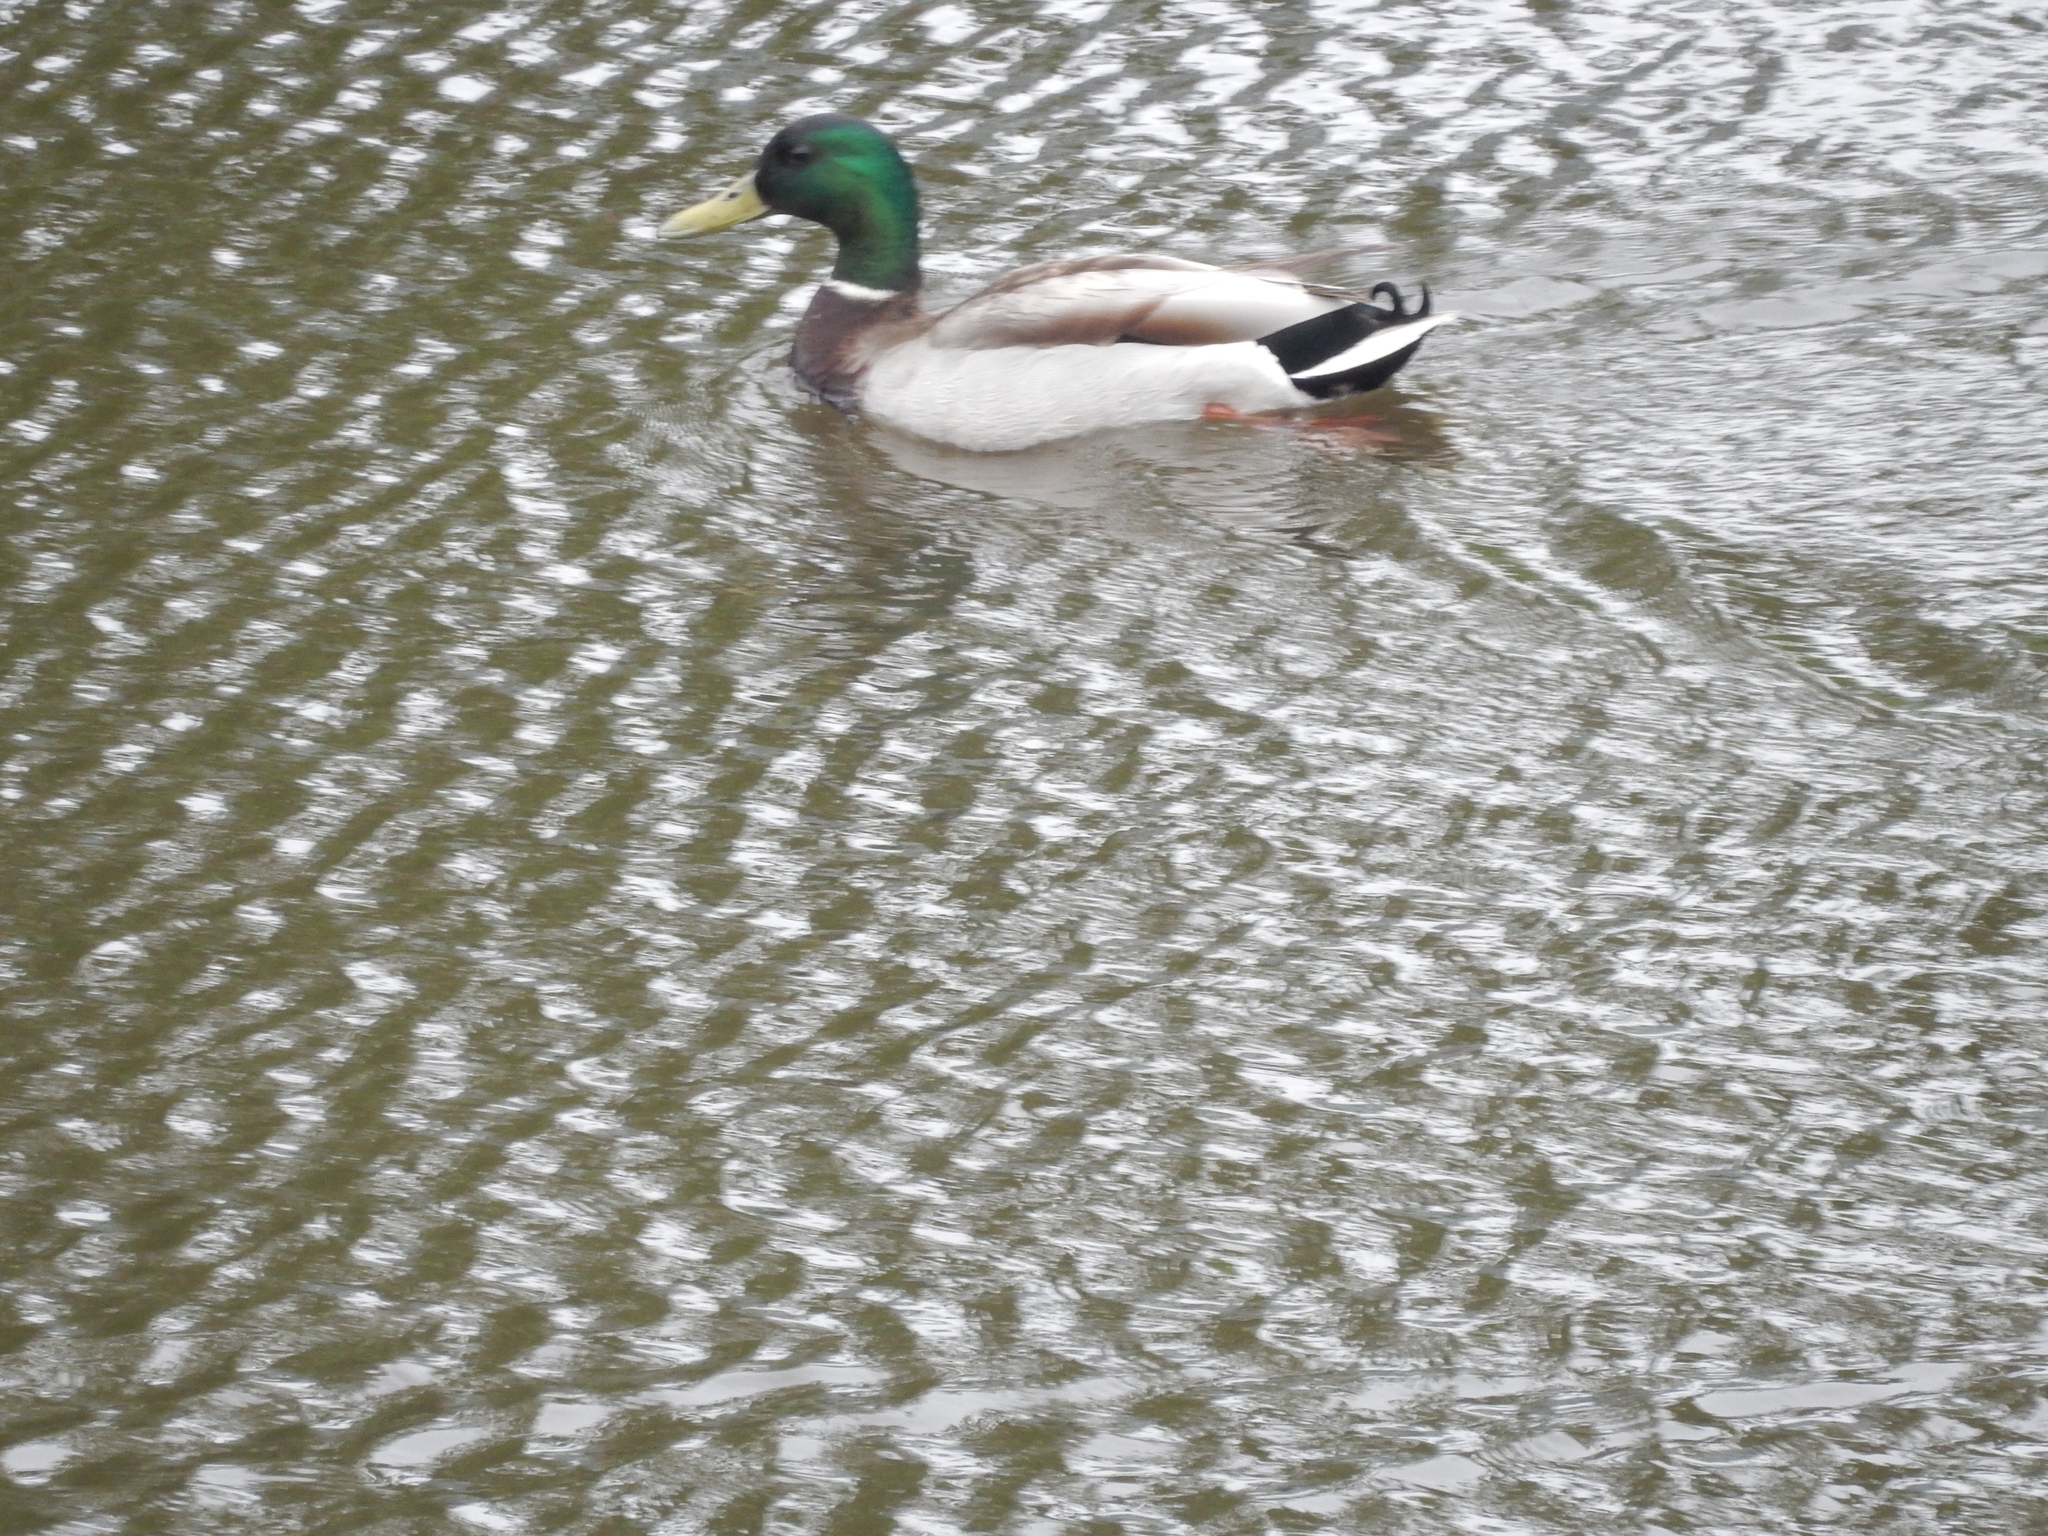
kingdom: Animalia
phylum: Chordata
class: Aves
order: Anseriformes
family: Anatidae
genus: Anas
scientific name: Anas platyrhynchos
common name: Mallard
